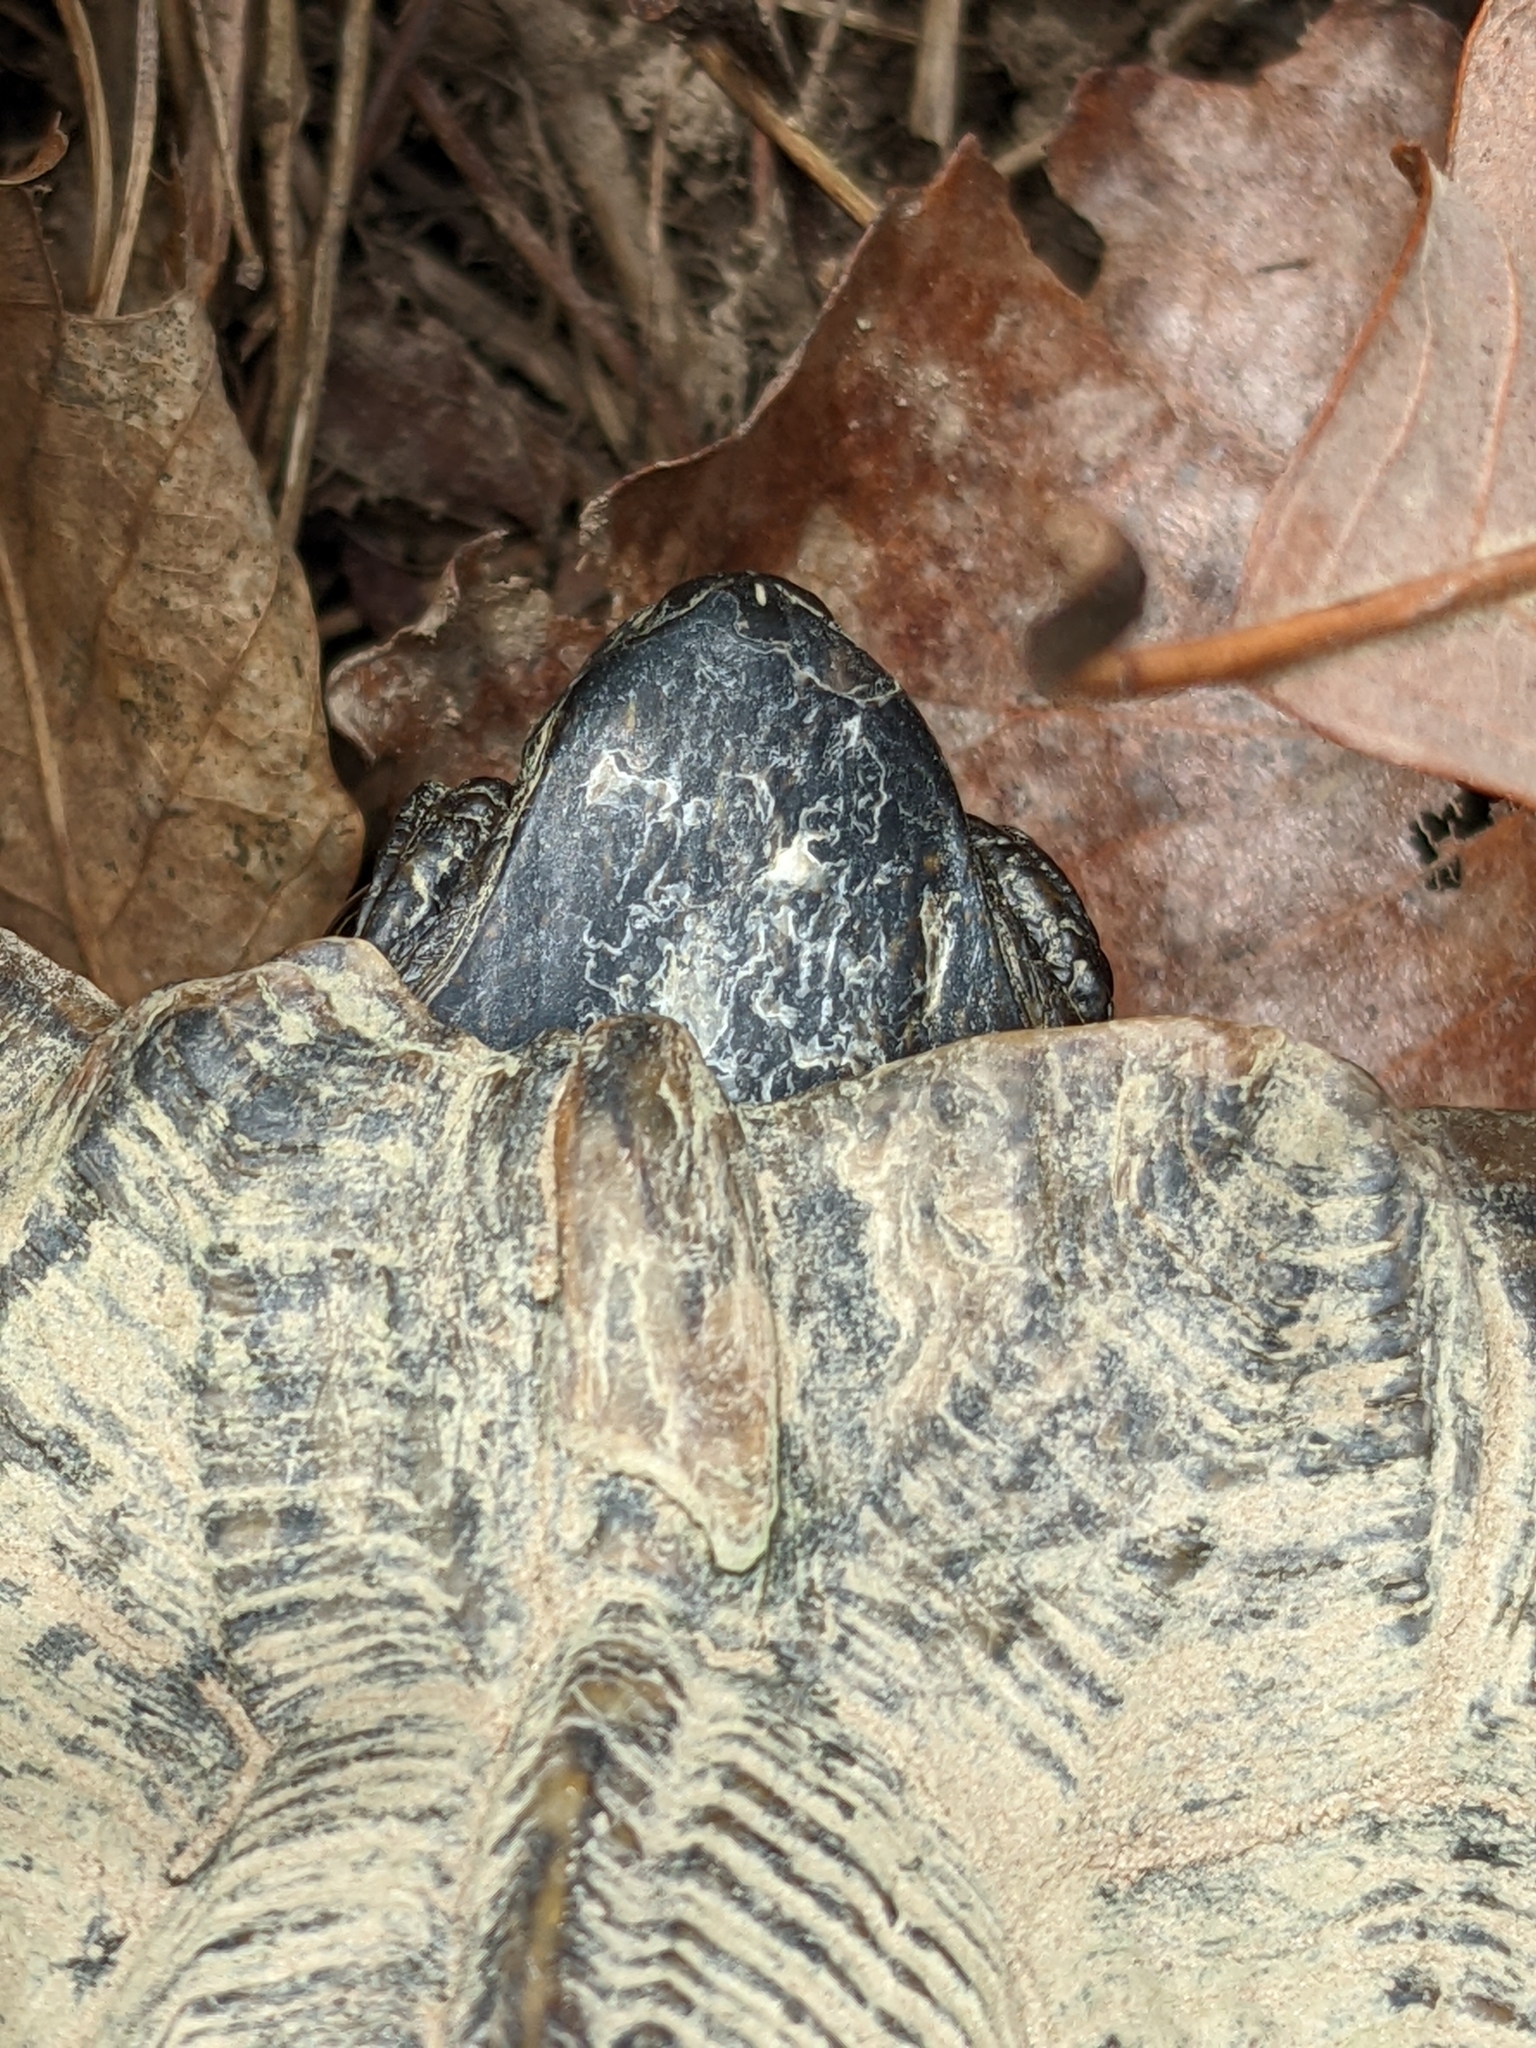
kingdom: Animalia
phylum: Chordata
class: Testudines
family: Emydidae
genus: Glyptemys
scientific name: Glyptemys insculpta
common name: Wood turtle
